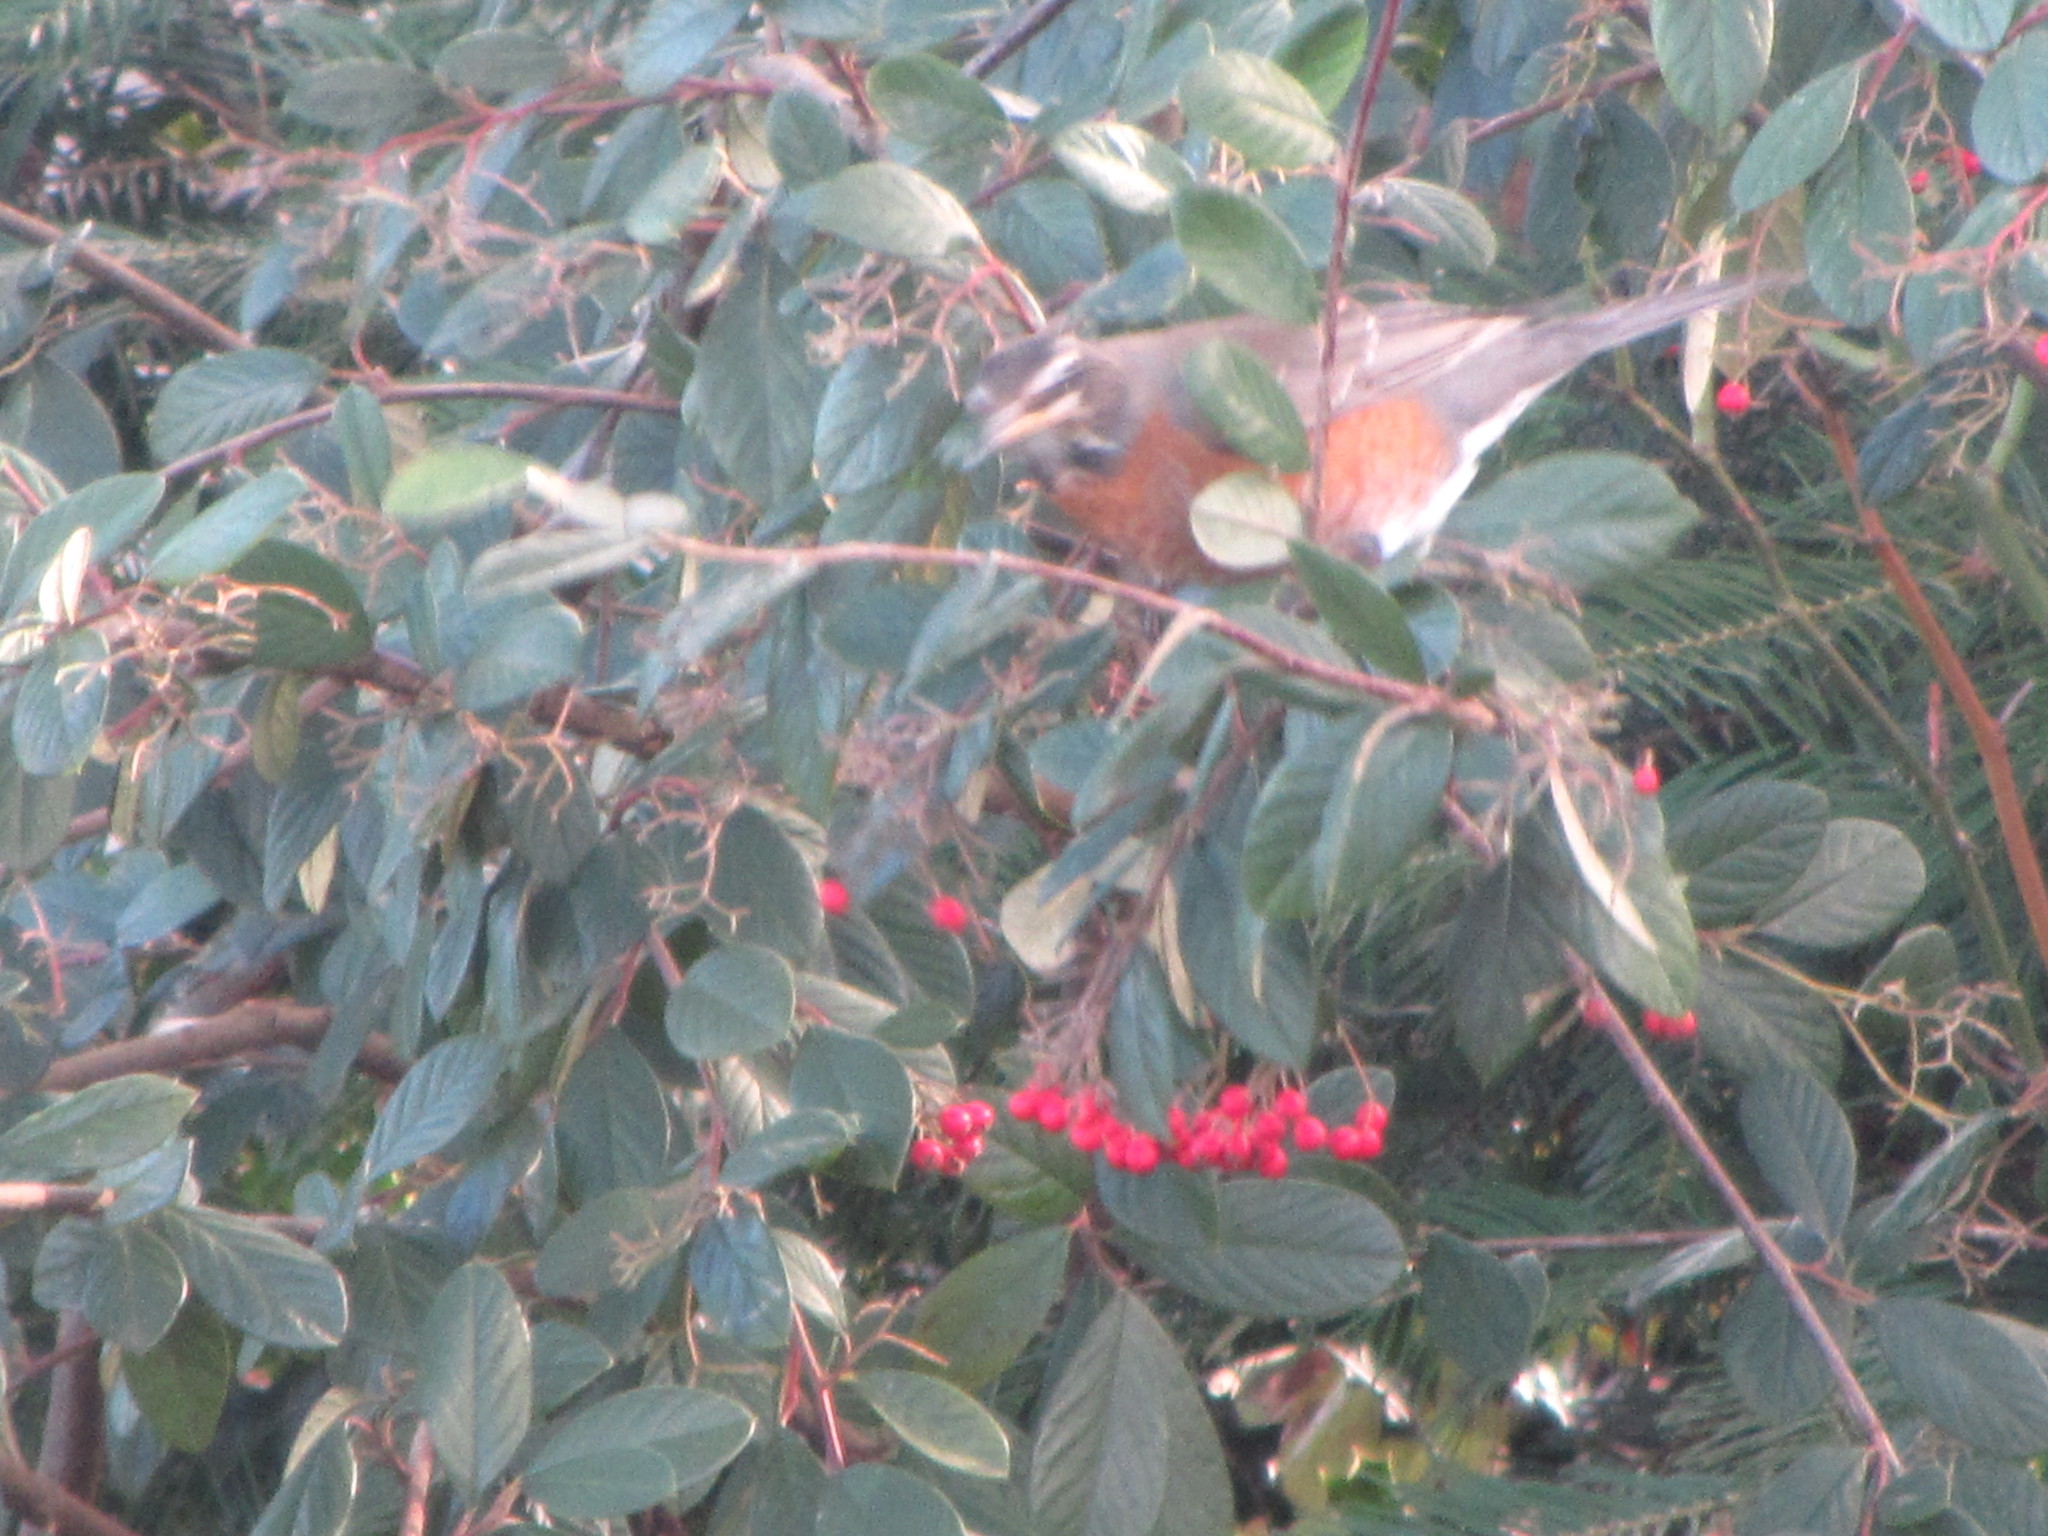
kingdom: Animalia
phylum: Chordata
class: Aves
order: Passeriformes
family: Turdidae
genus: Turdus
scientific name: Turdus migratorius
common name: American robin
